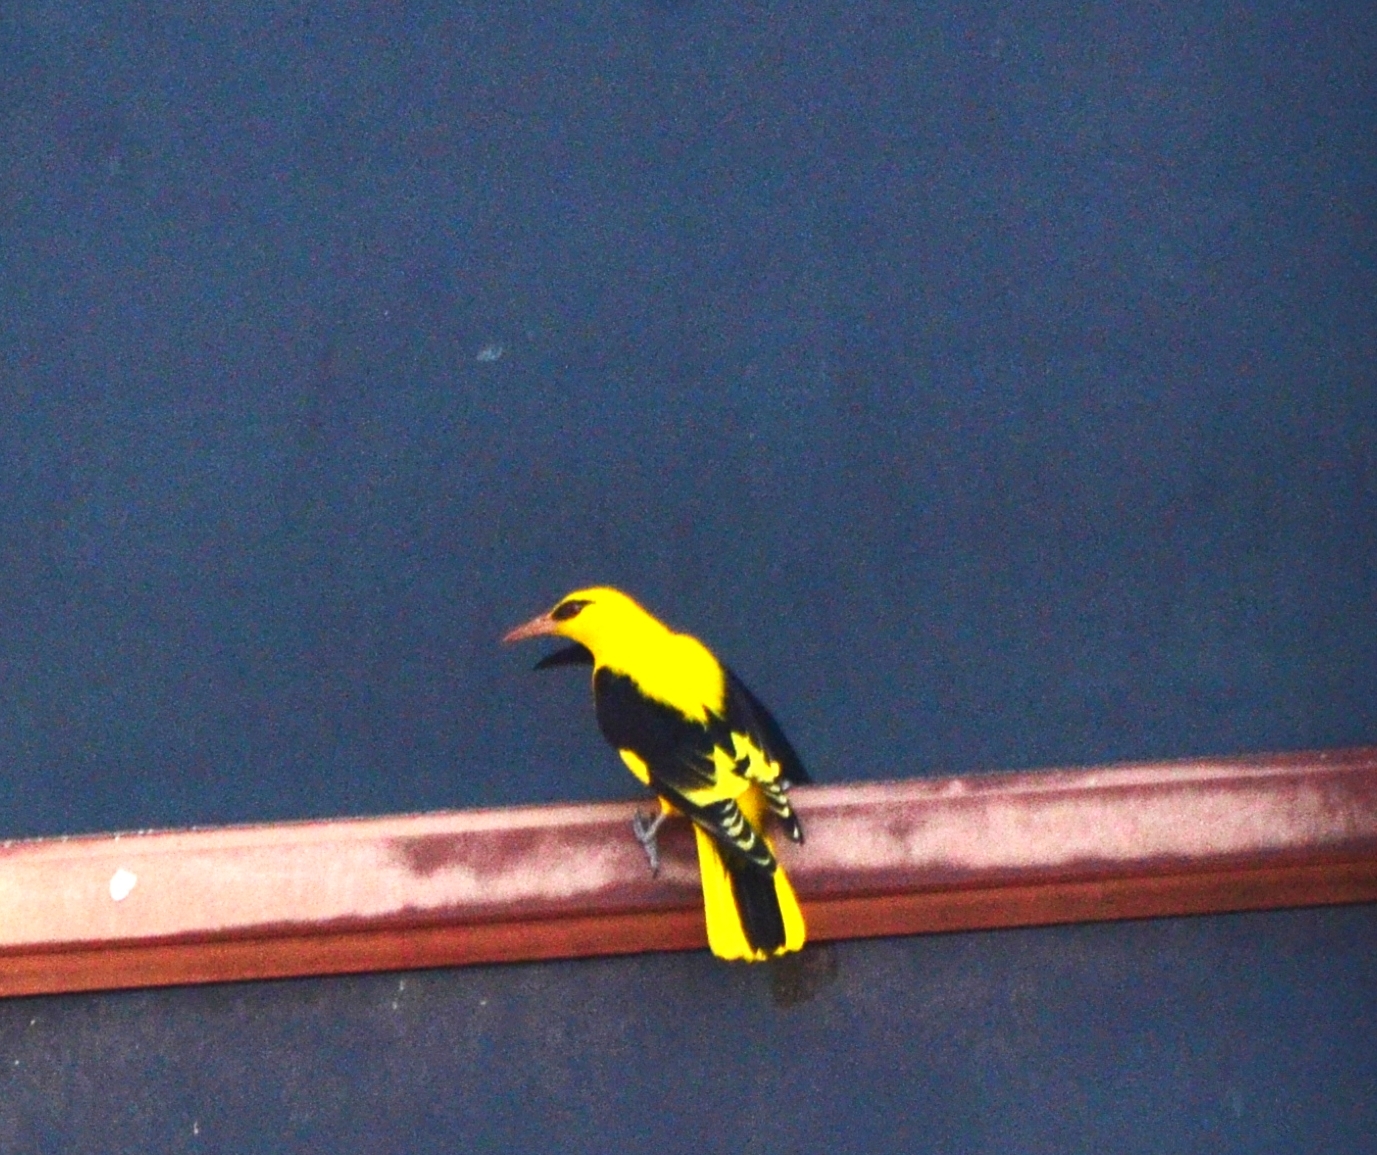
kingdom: Animalia
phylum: Chordata
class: Aves
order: Passeriformes
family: Oriolidae
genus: Oriolus
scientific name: Oriolus kundoo
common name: Indian golden oriole
